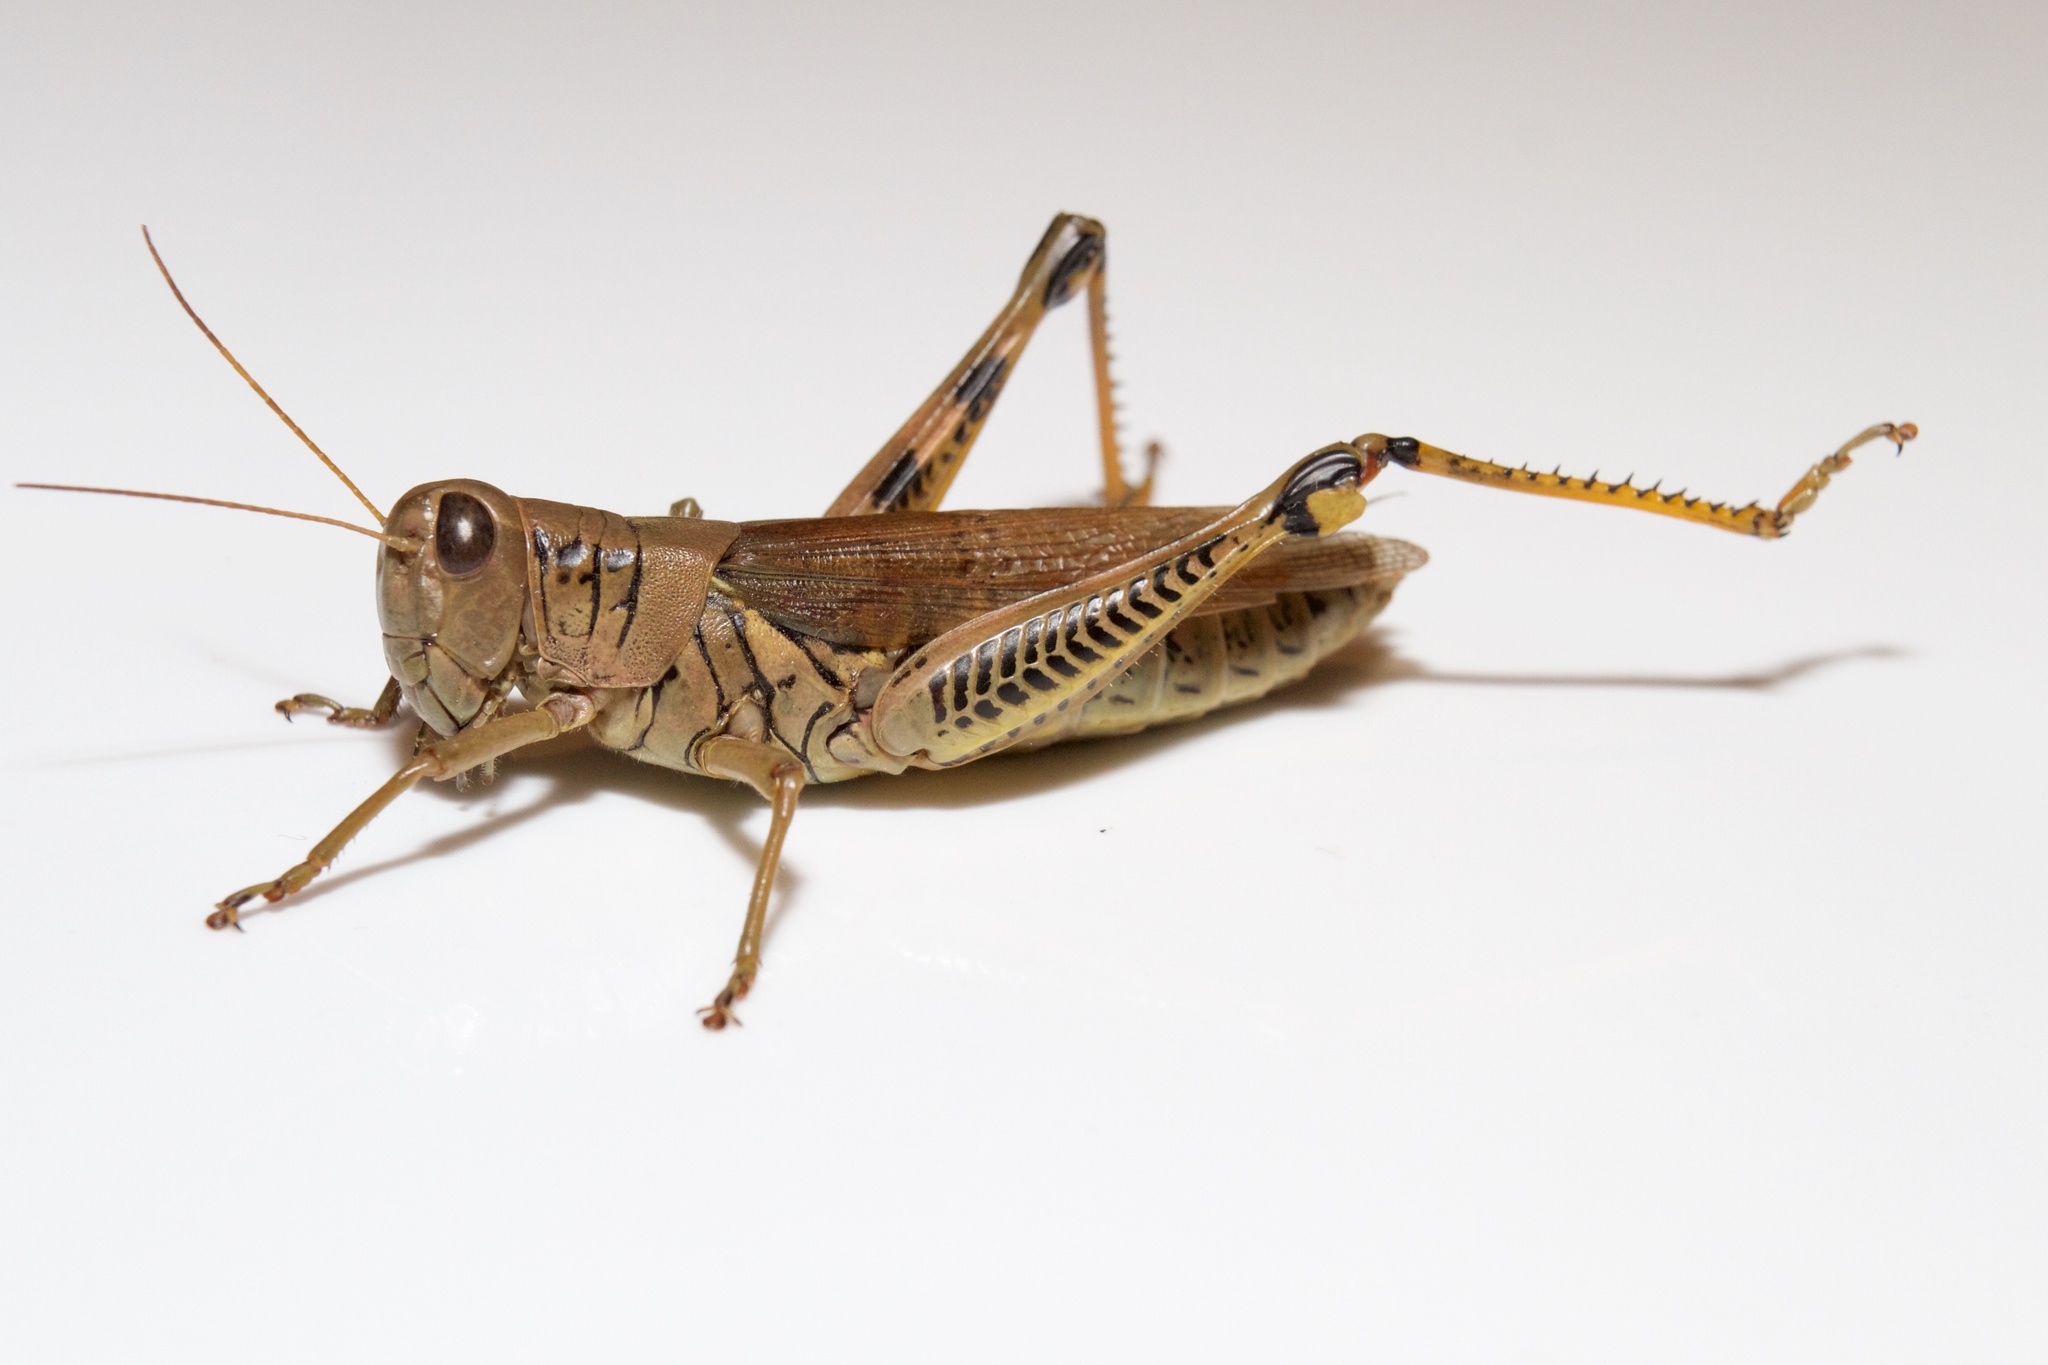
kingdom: Animalia
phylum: Arthropoda
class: Insecta
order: Orthoptera
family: Acrididae
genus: Melanoplus
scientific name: Melanoplus differentialis
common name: Differential grasshopper
